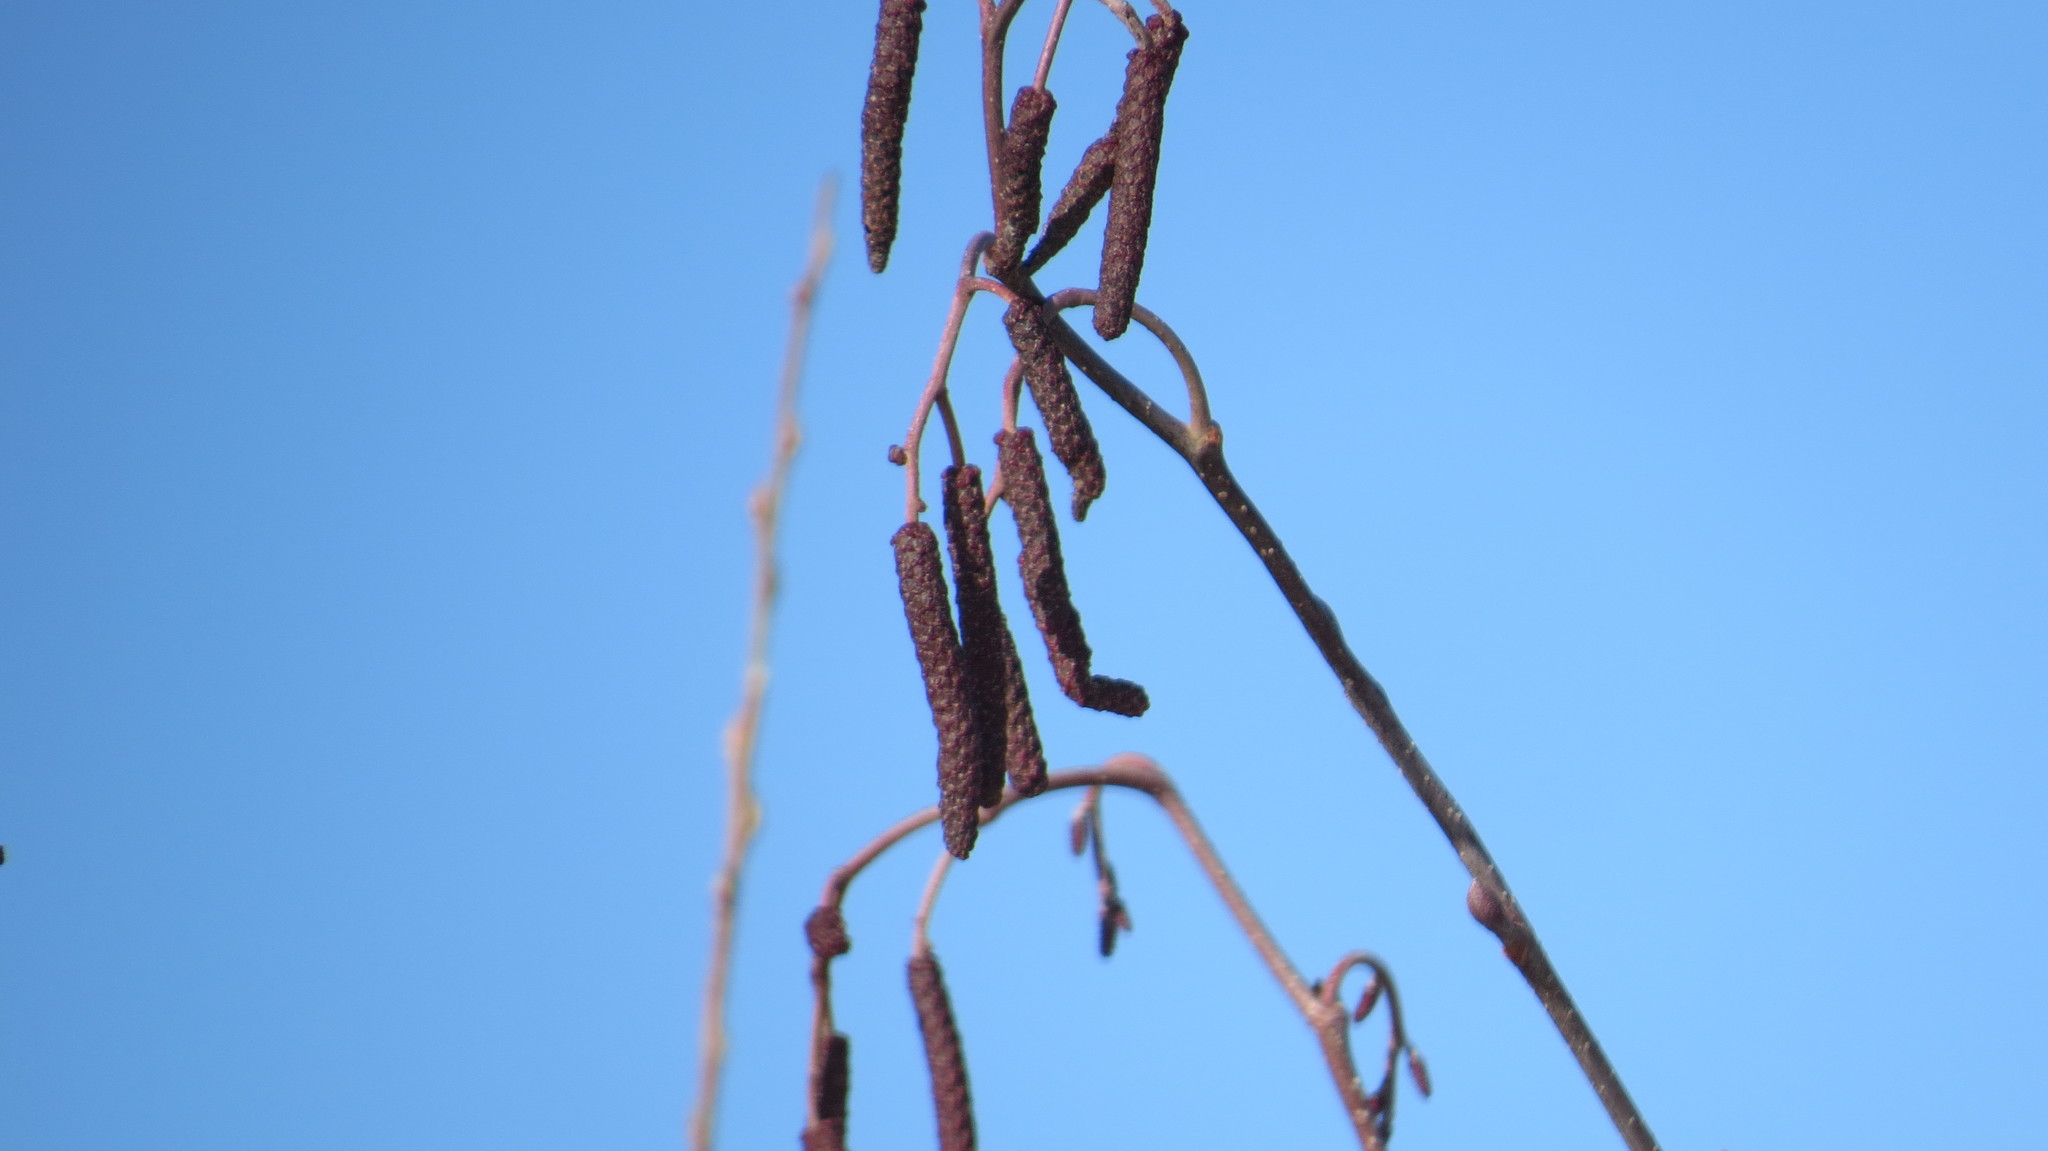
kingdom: Plantae
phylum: Tracheophyta
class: Magnoliopsida
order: Fagales
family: Betulaceae
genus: Alnus
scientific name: Alnus incana
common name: Grey alder
